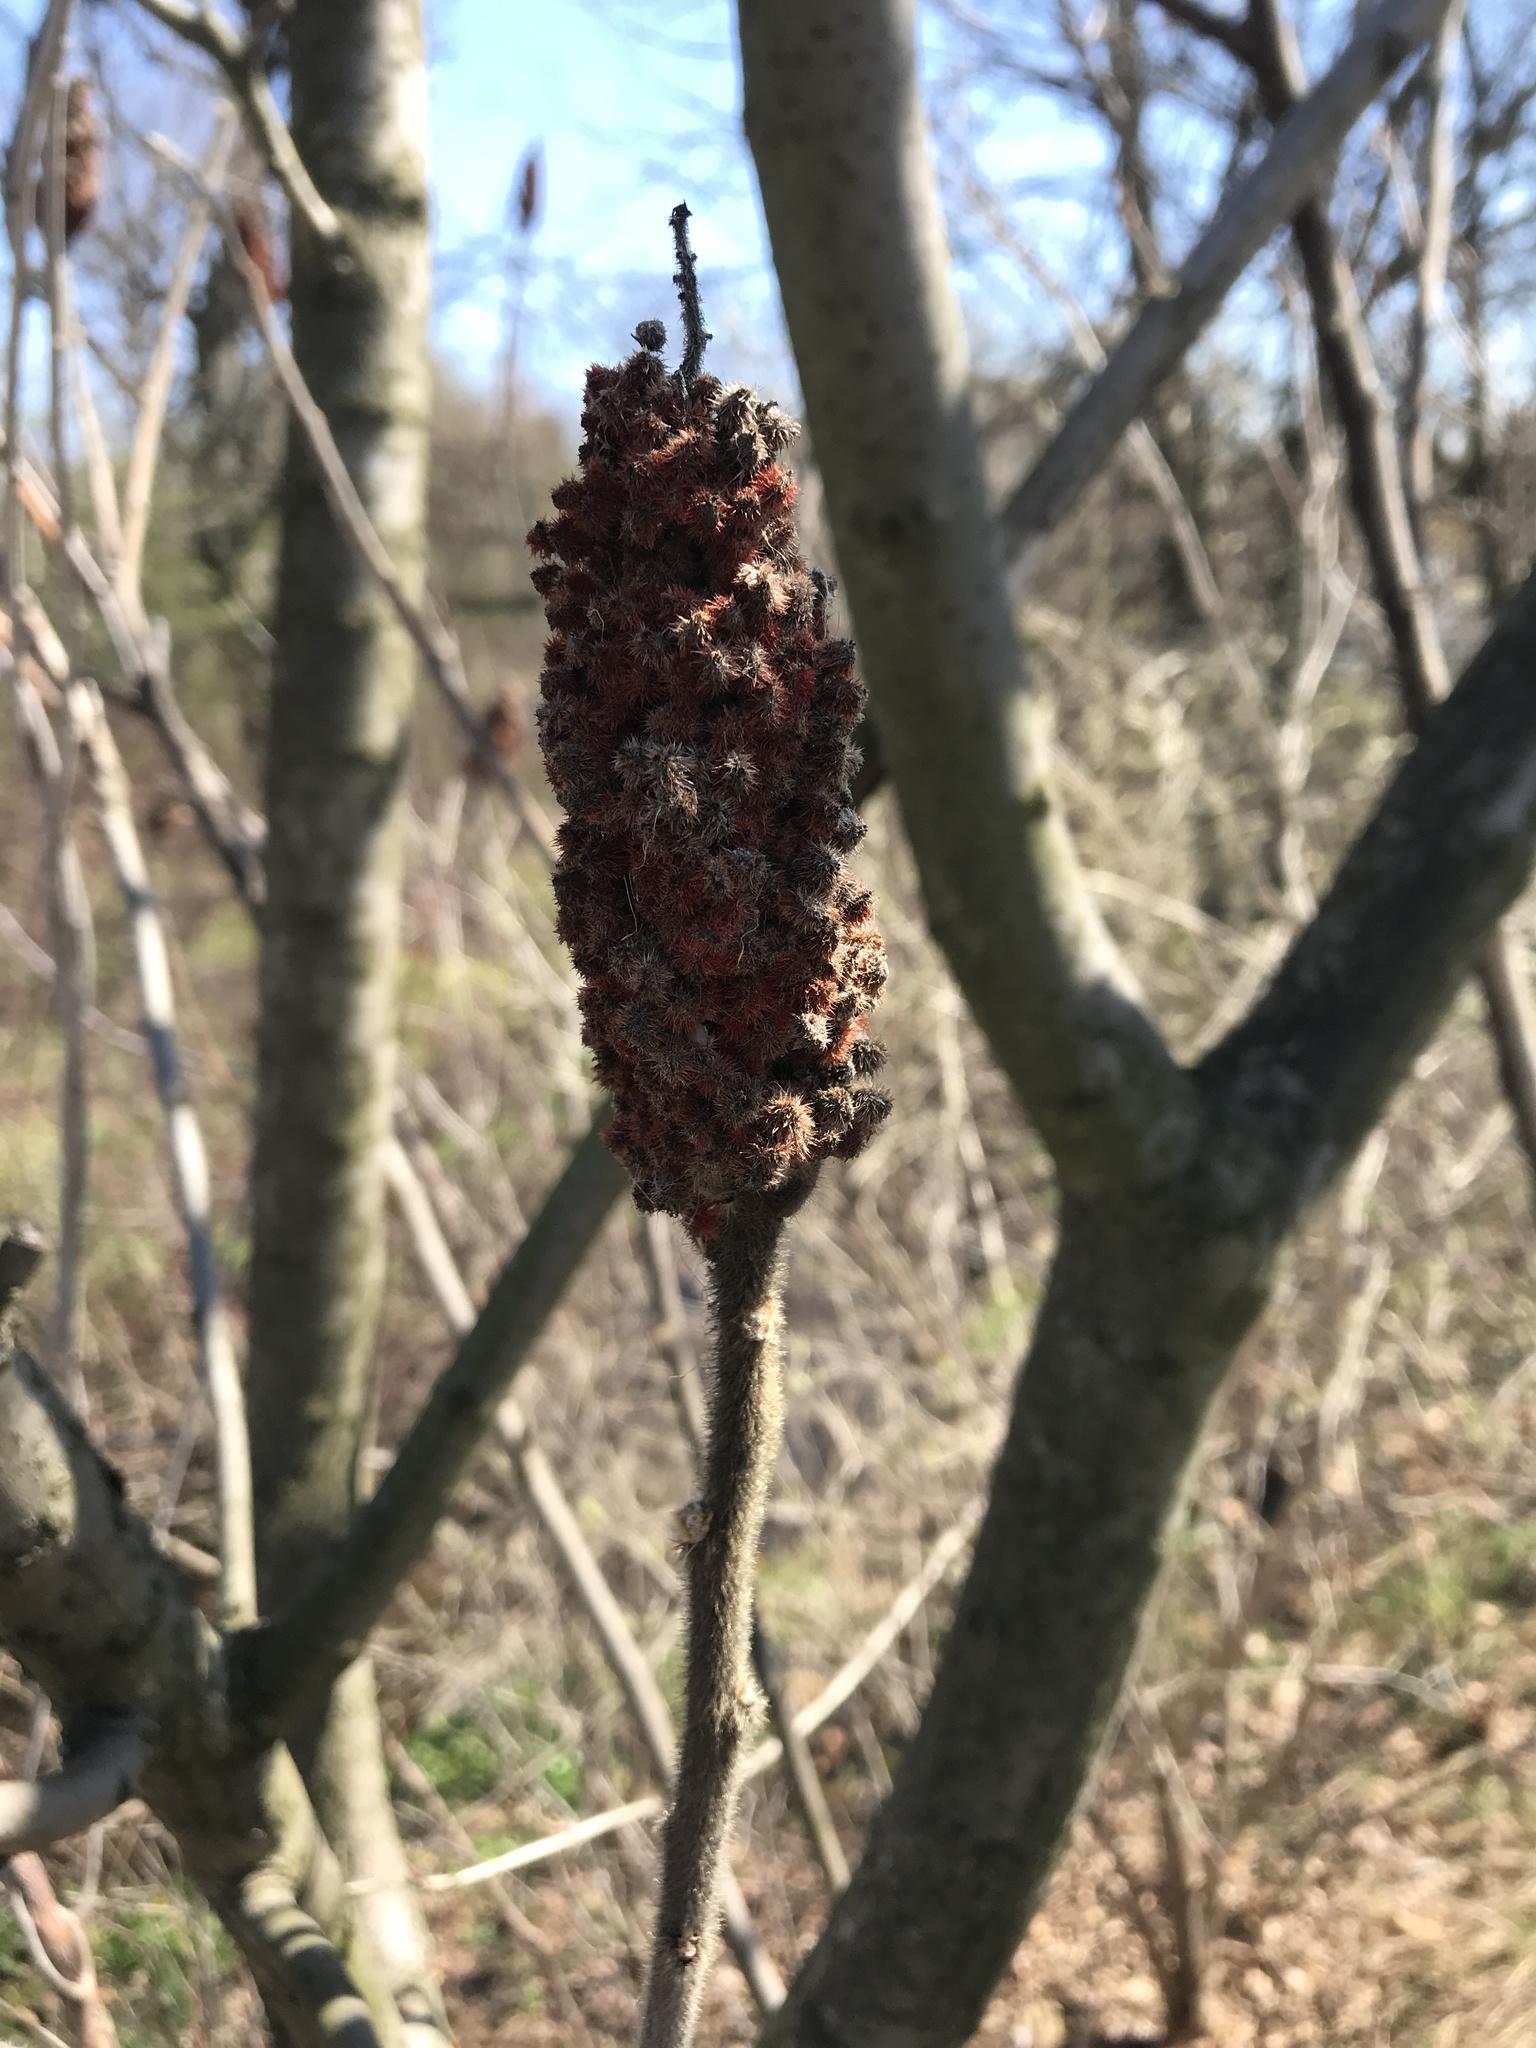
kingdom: Plantae
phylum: Tracheophyta
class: Magnoliopsida
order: Sapindales
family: Anacardiaceae
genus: Rhus
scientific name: Rhus typhina
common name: Staghorn sumac
